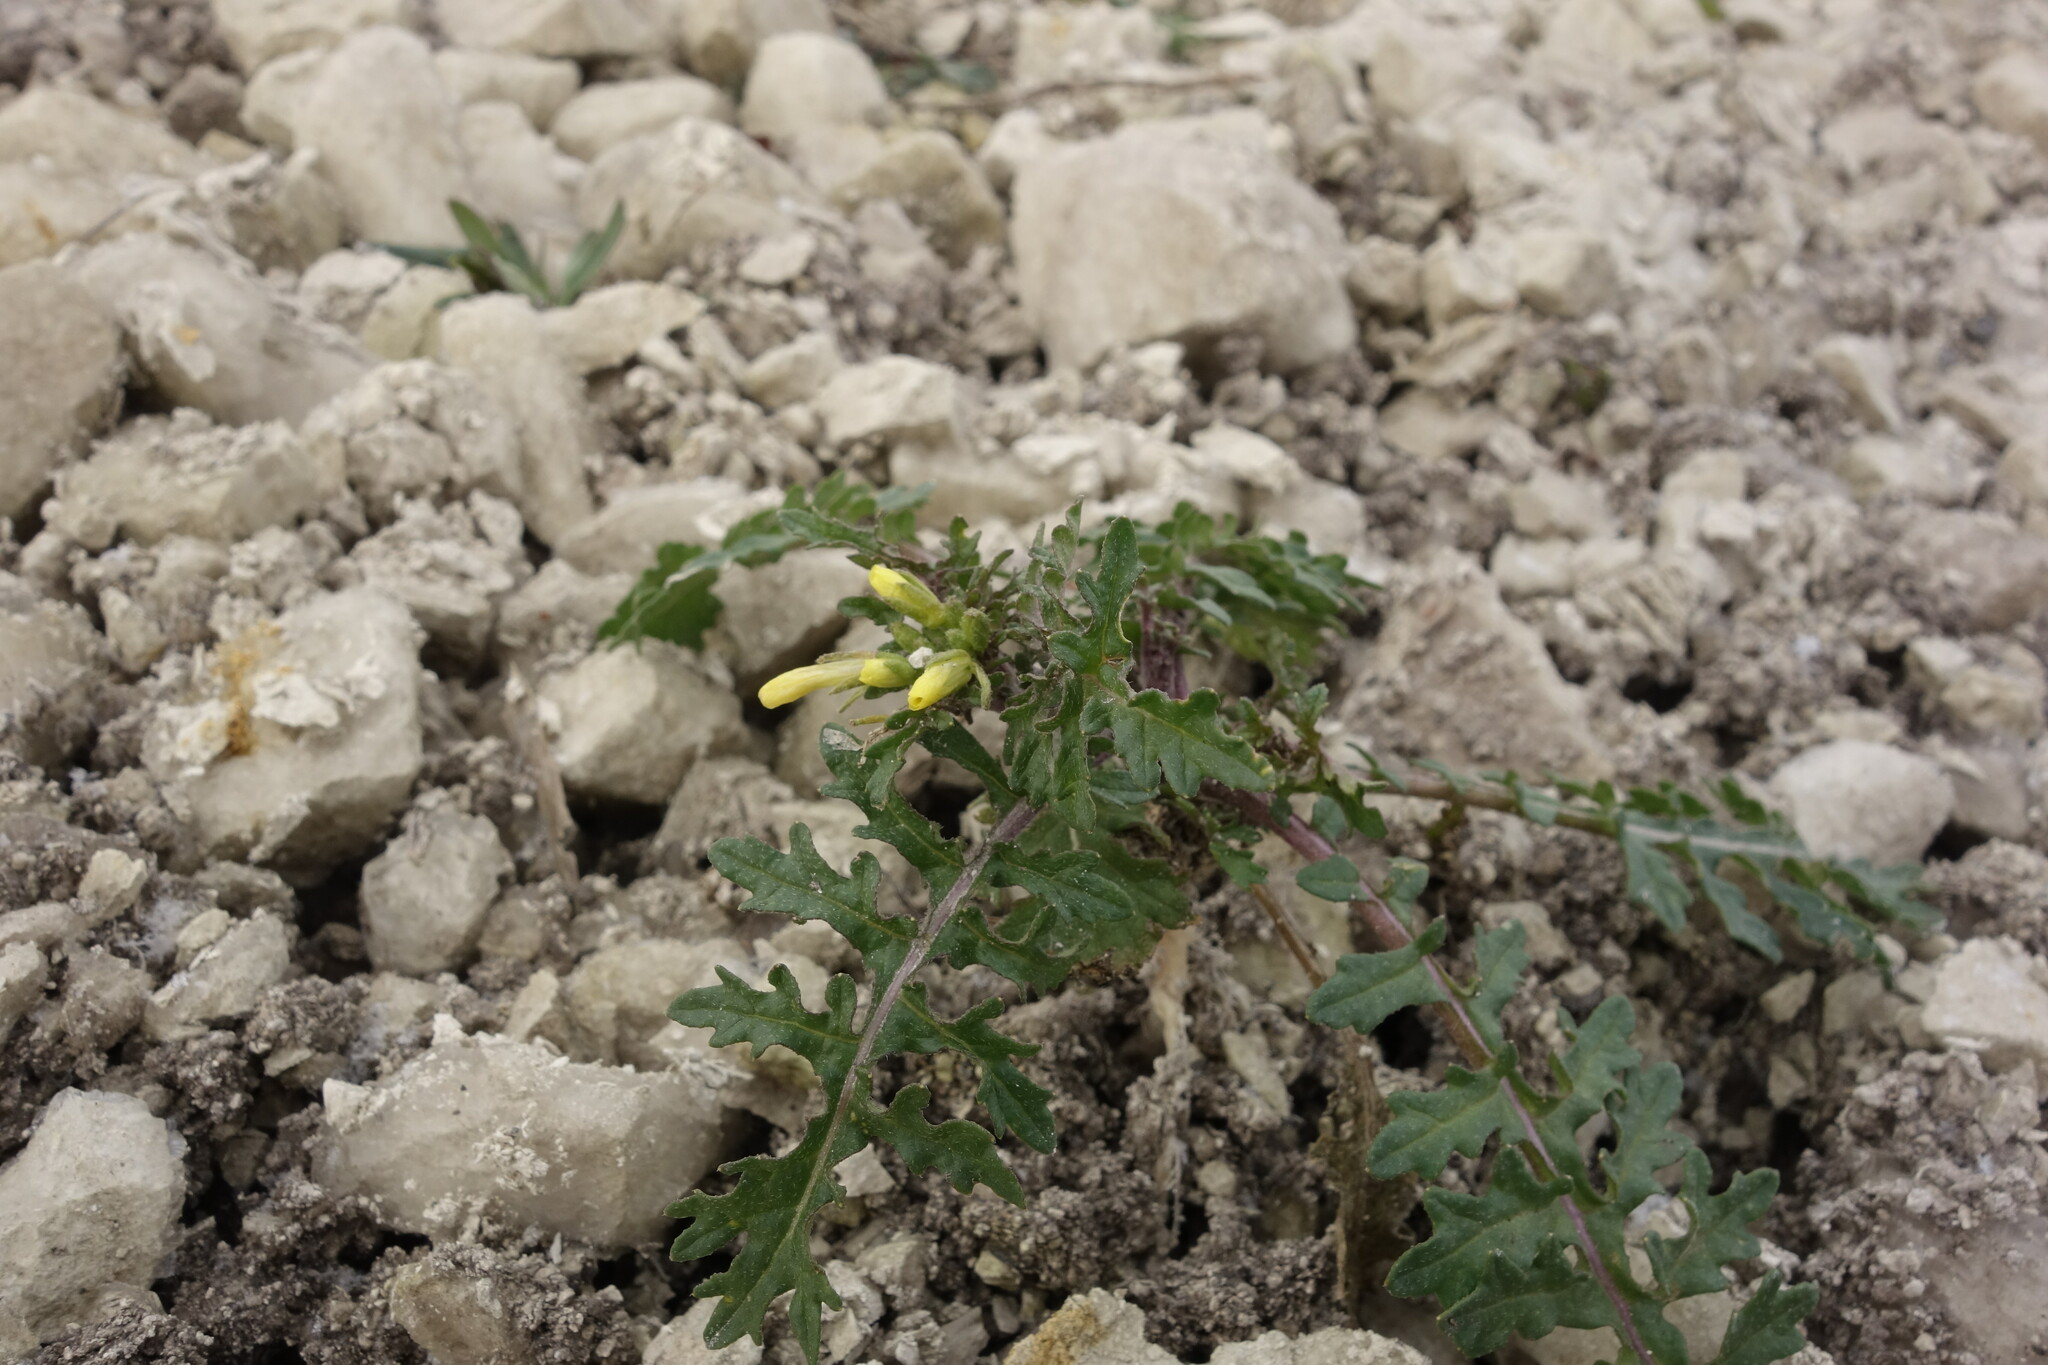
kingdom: Plantae
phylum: Tracheophyta
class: Magnoliopsida
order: Brassicales
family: Brassicaceae
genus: Erucastrum
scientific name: Erucastrum gallicum
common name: Hairy rocket
